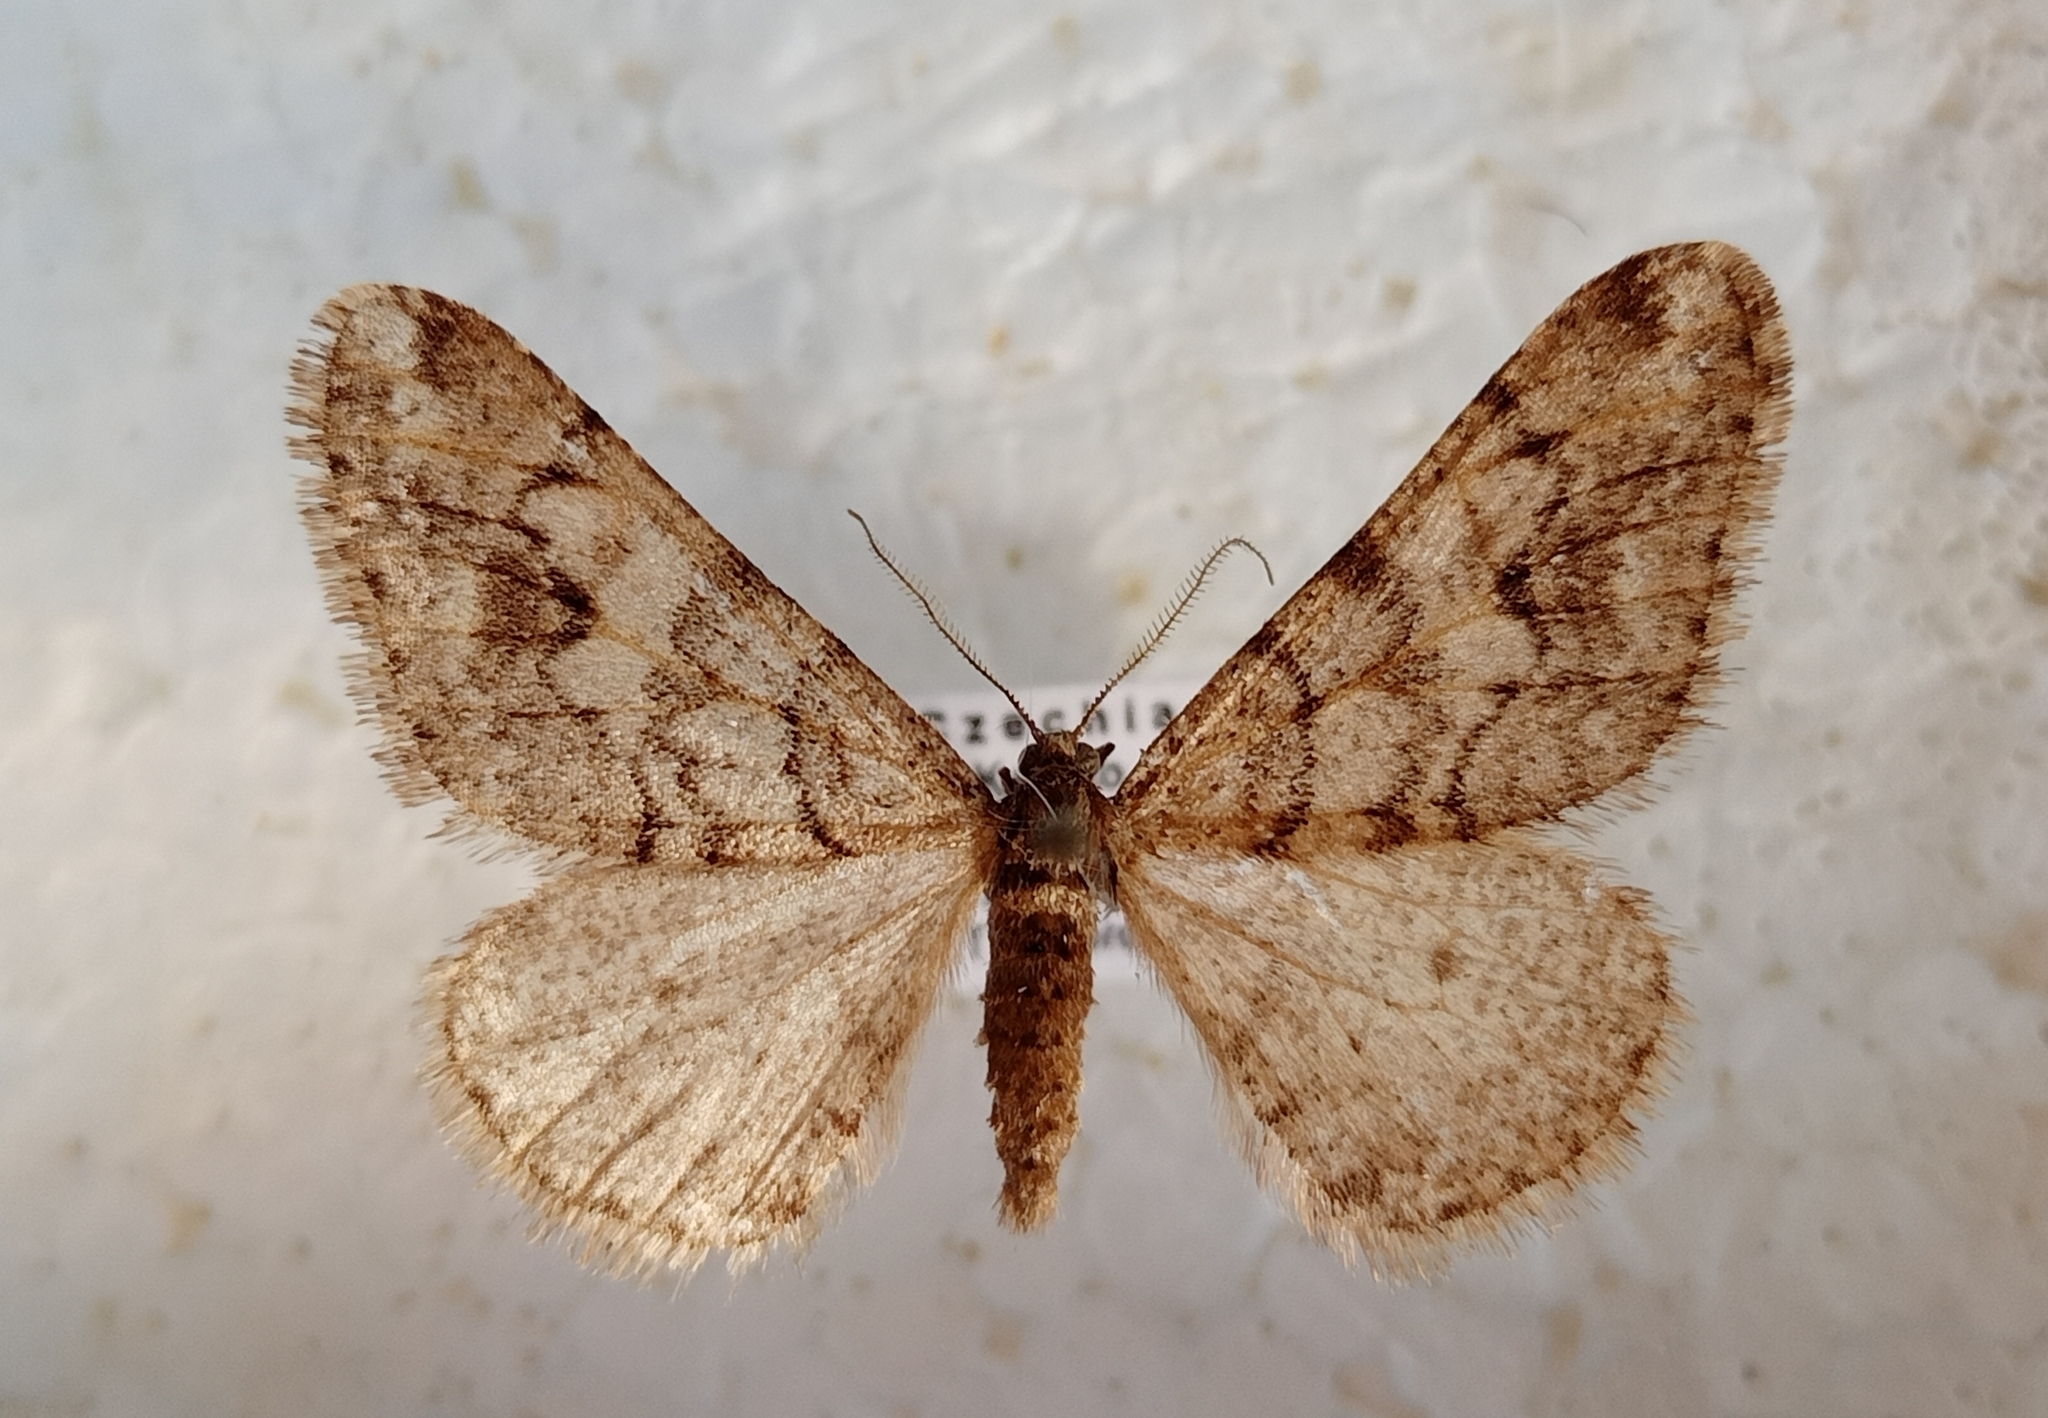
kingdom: Animalia
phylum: Arthropoda
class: Insecta
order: Lepidoptera
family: Geometridae
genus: Agriopis
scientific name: Agriopis leucophaearia
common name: Spring usher
